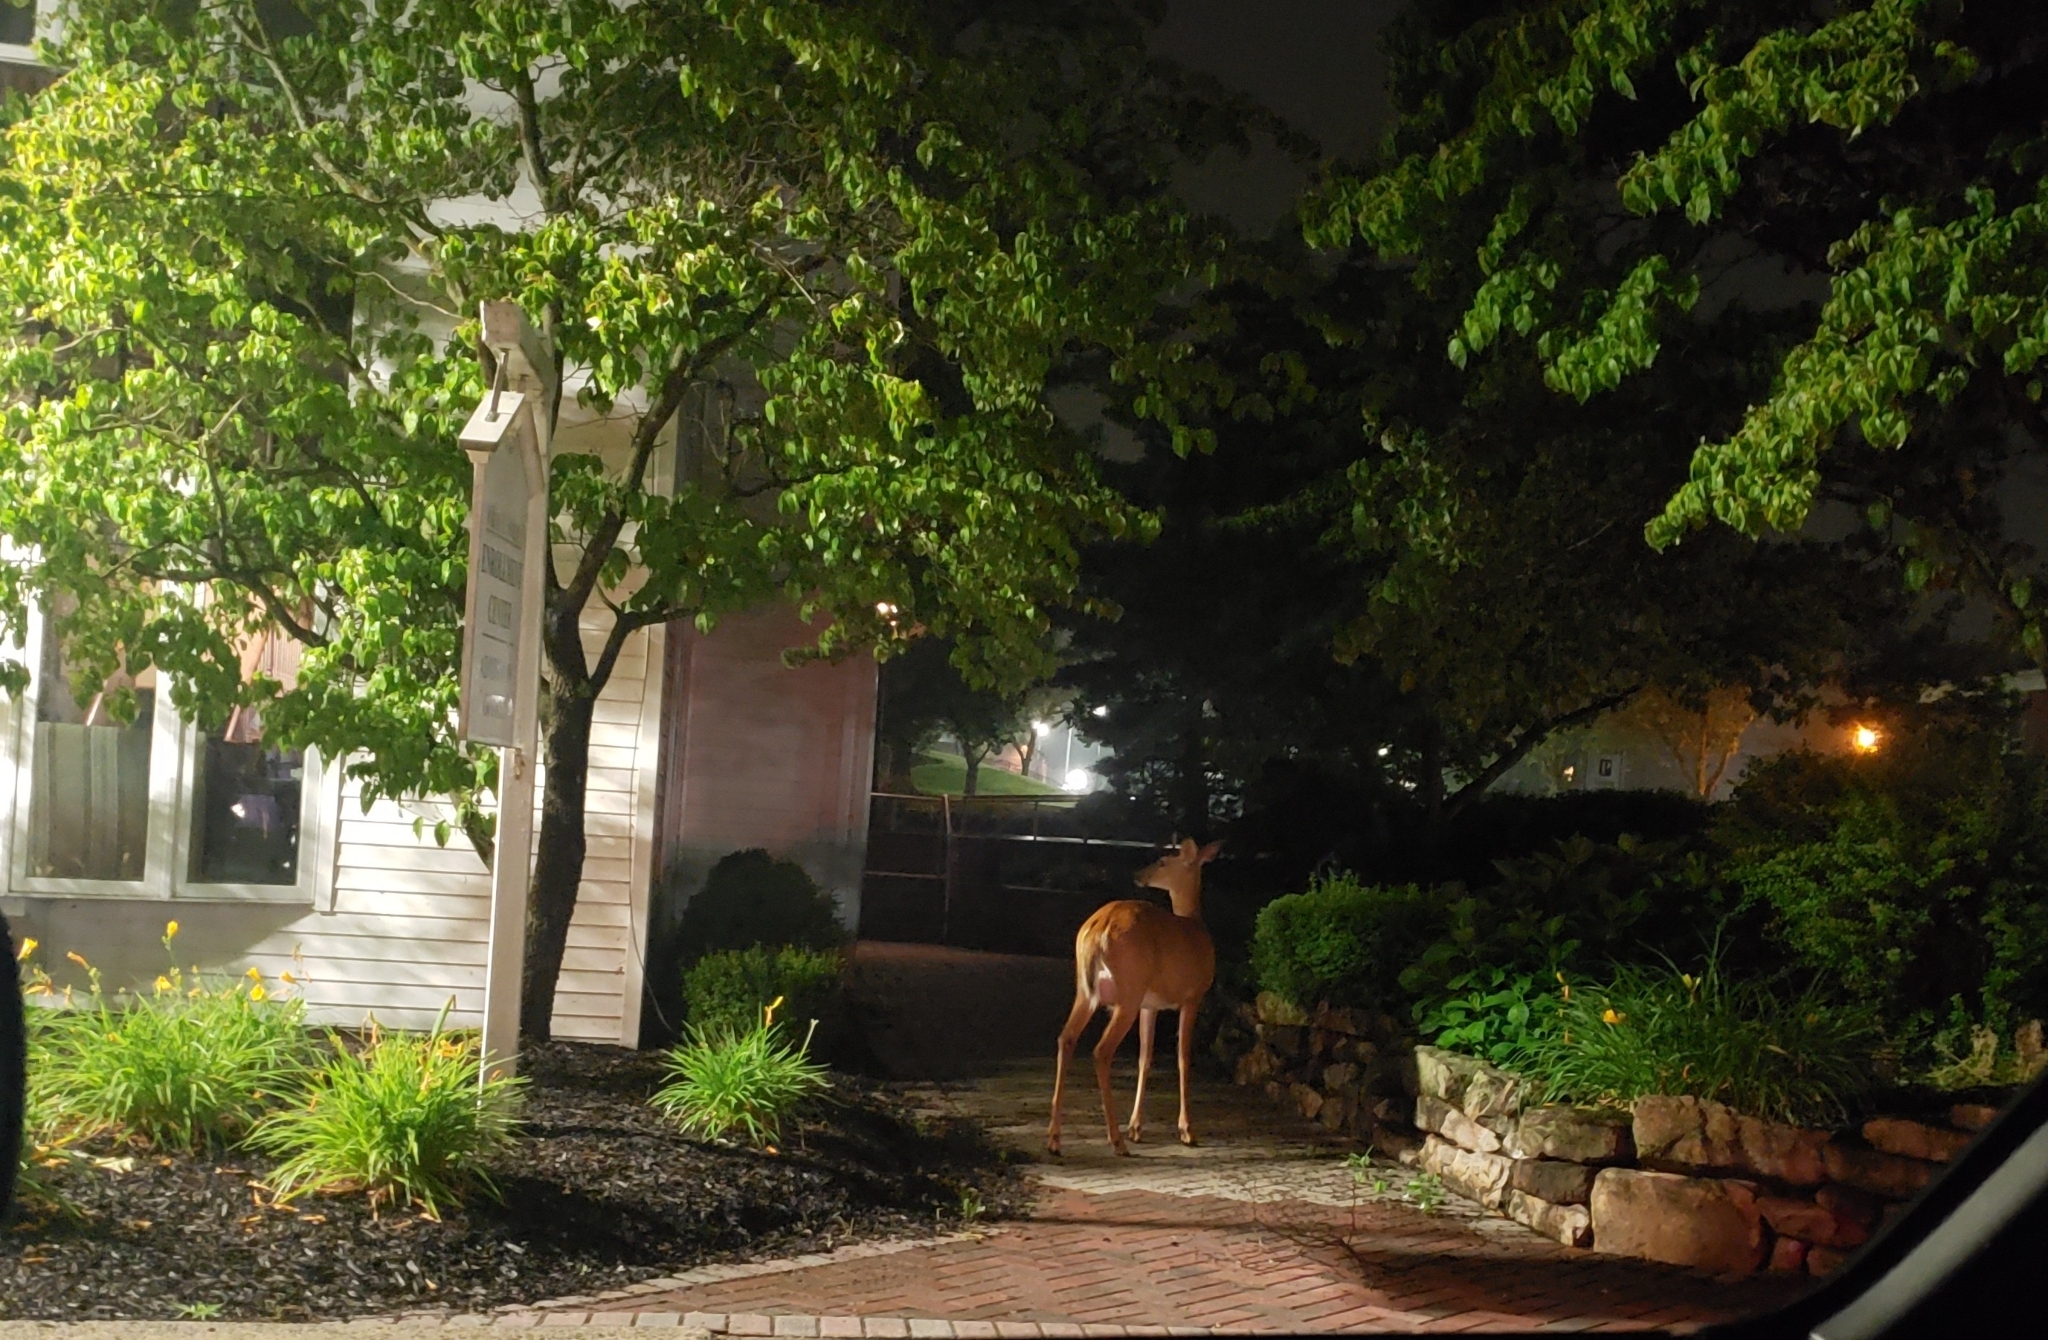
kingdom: Animalia
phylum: Chordata
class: Mammalia
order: Artiodactyla
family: Cervidae
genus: Odocoileus
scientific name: Odocoileus virginianus
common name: White-tailed deer
